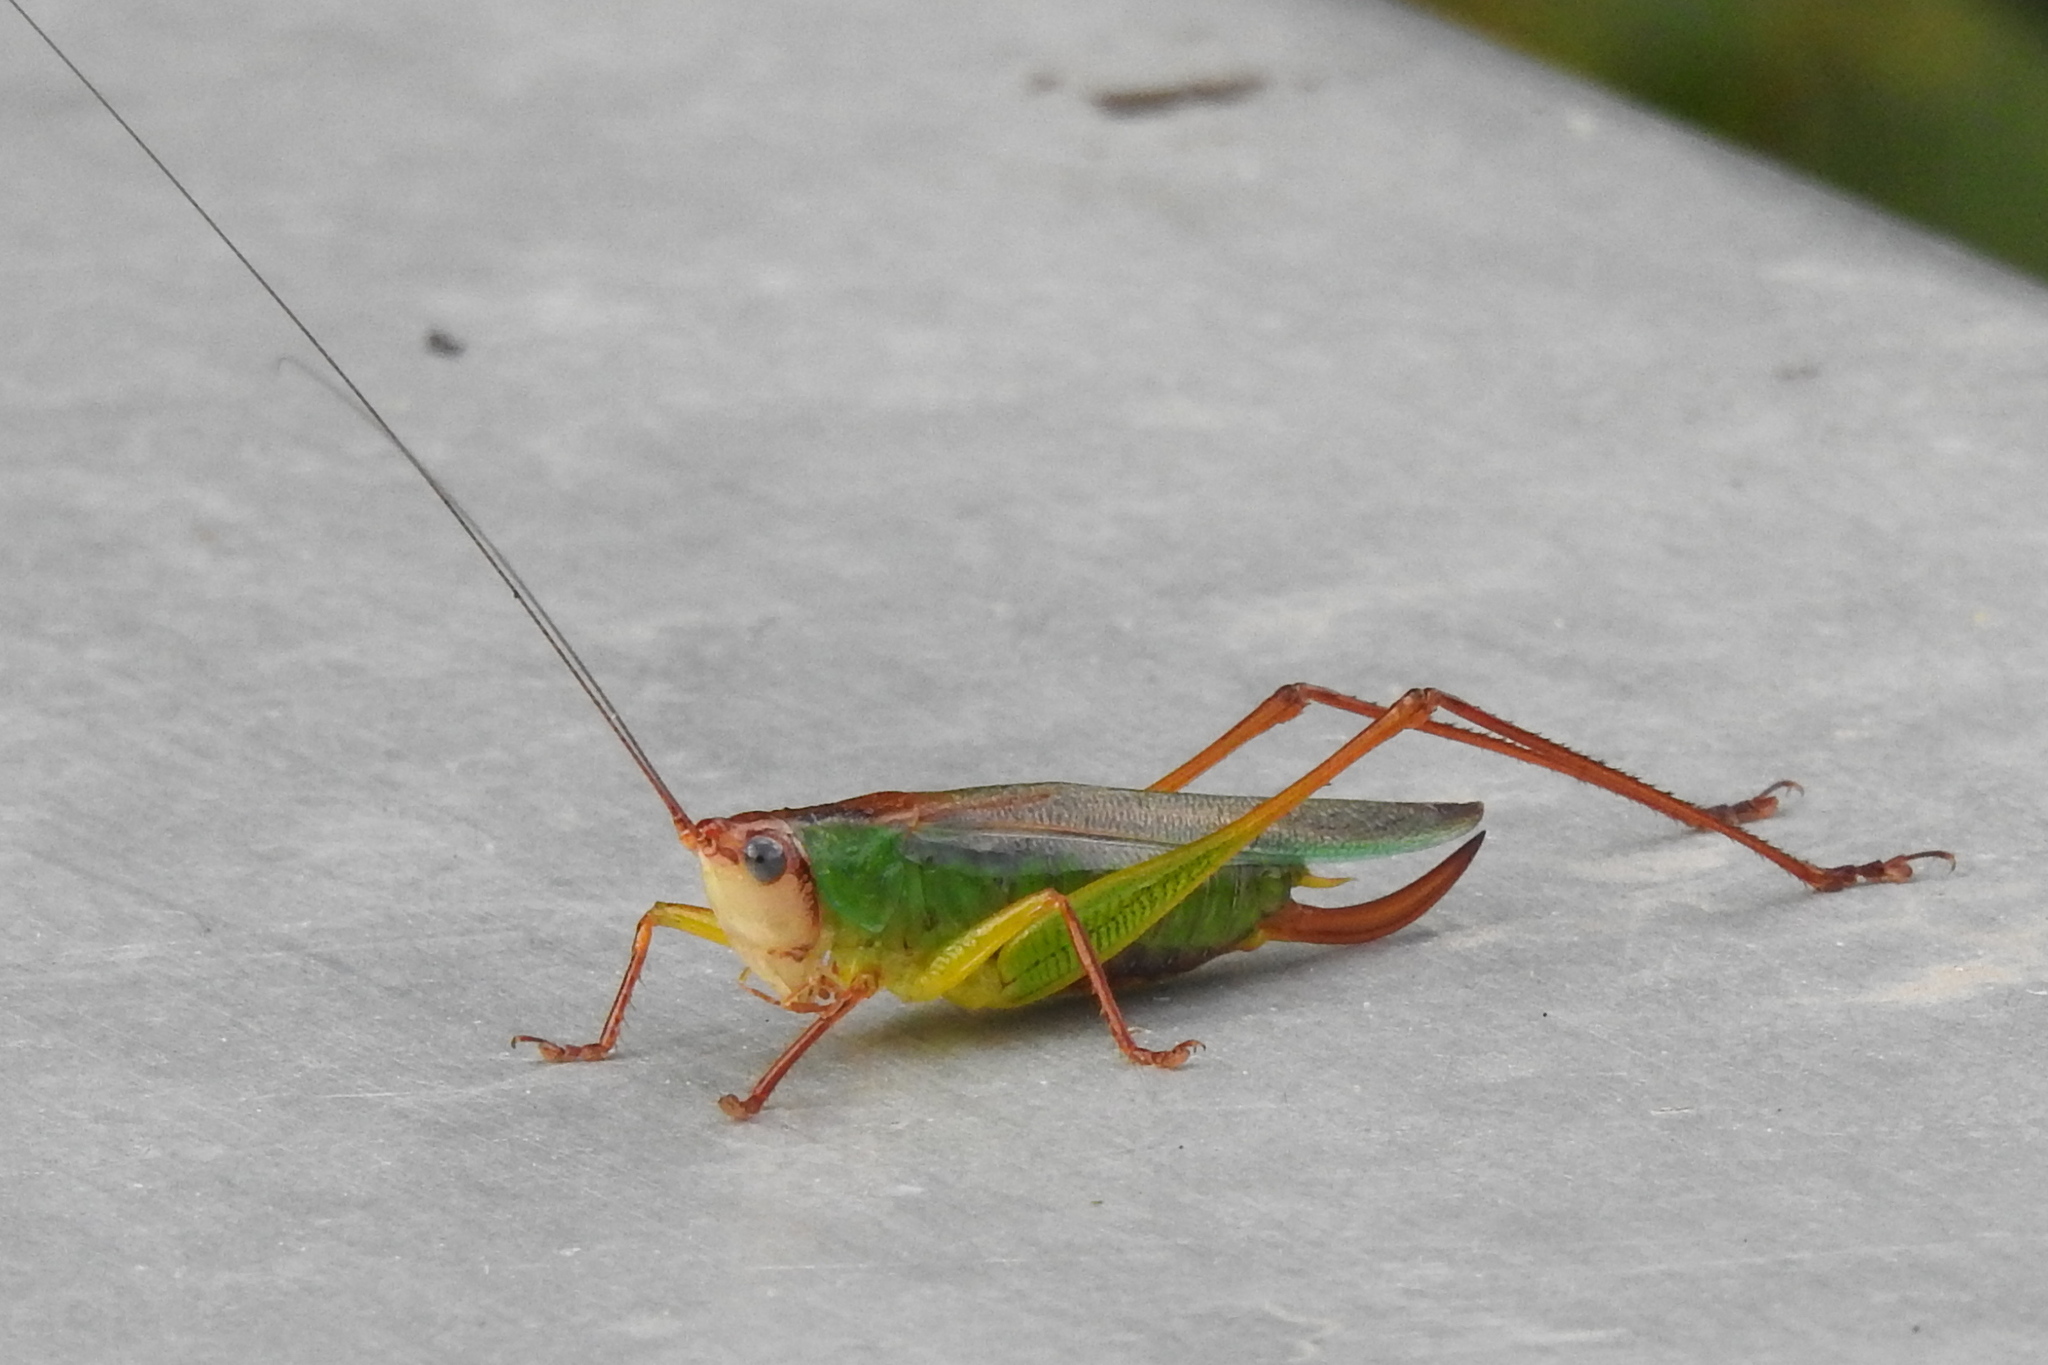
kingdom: Animalia
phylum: Arthropoda
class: Insecta
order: Orthoptera
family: Tettigoniidae
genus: Orchelimum
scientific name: Orchelimum pulchellum
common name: Handsome meadow katydid
